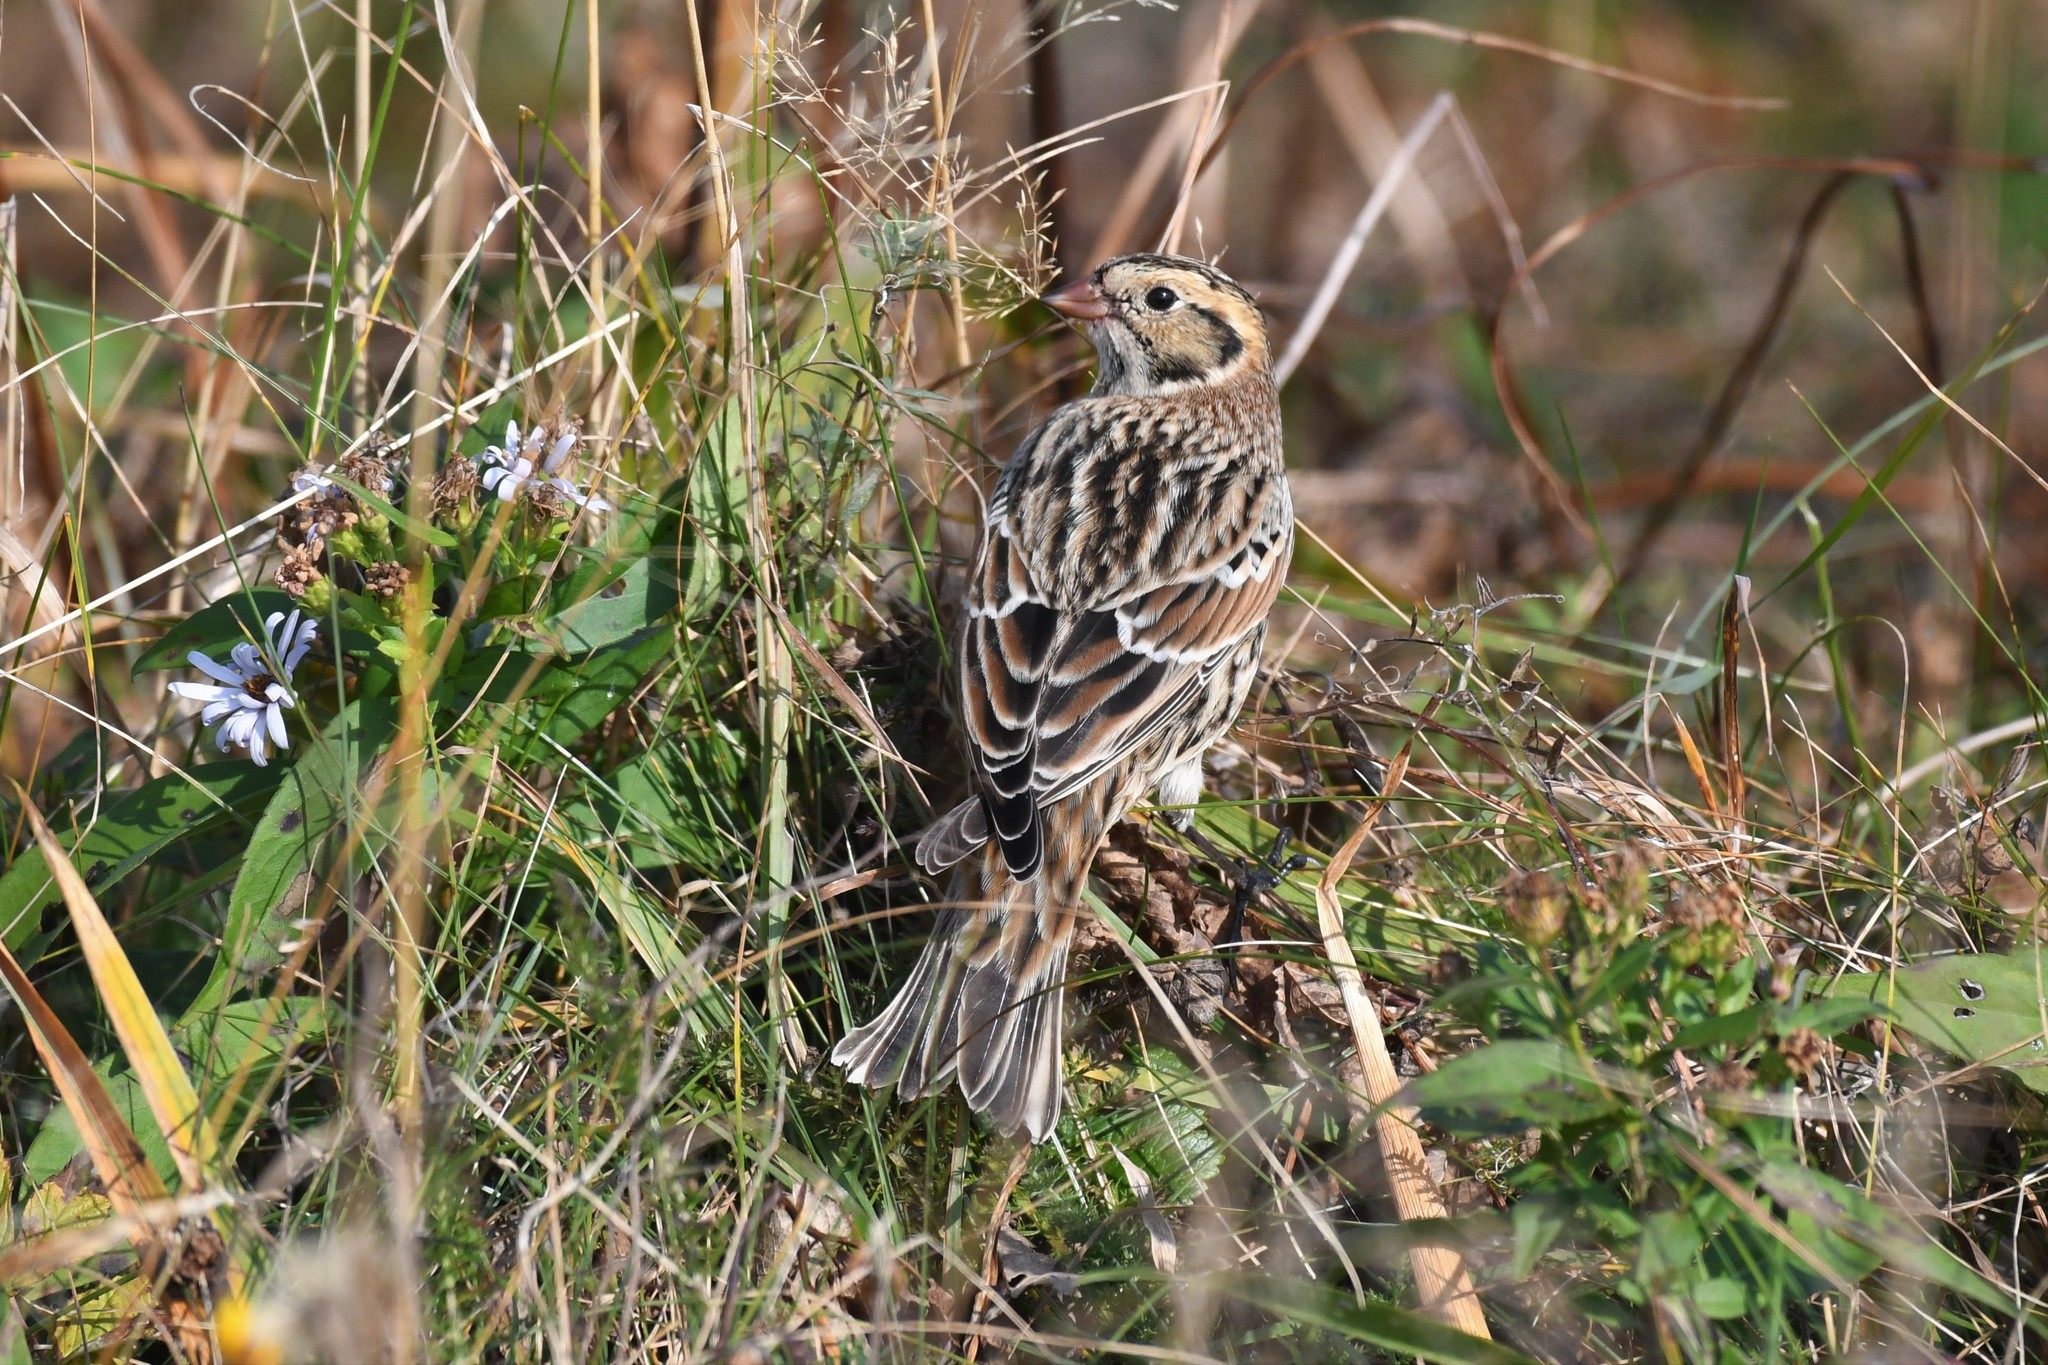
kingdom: Animalia
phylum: Chordata
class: Aves
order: Passeriformes
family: Calcariidae
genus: Calcarius
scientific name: Calcarius lapponicus
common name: Lapland longspur
